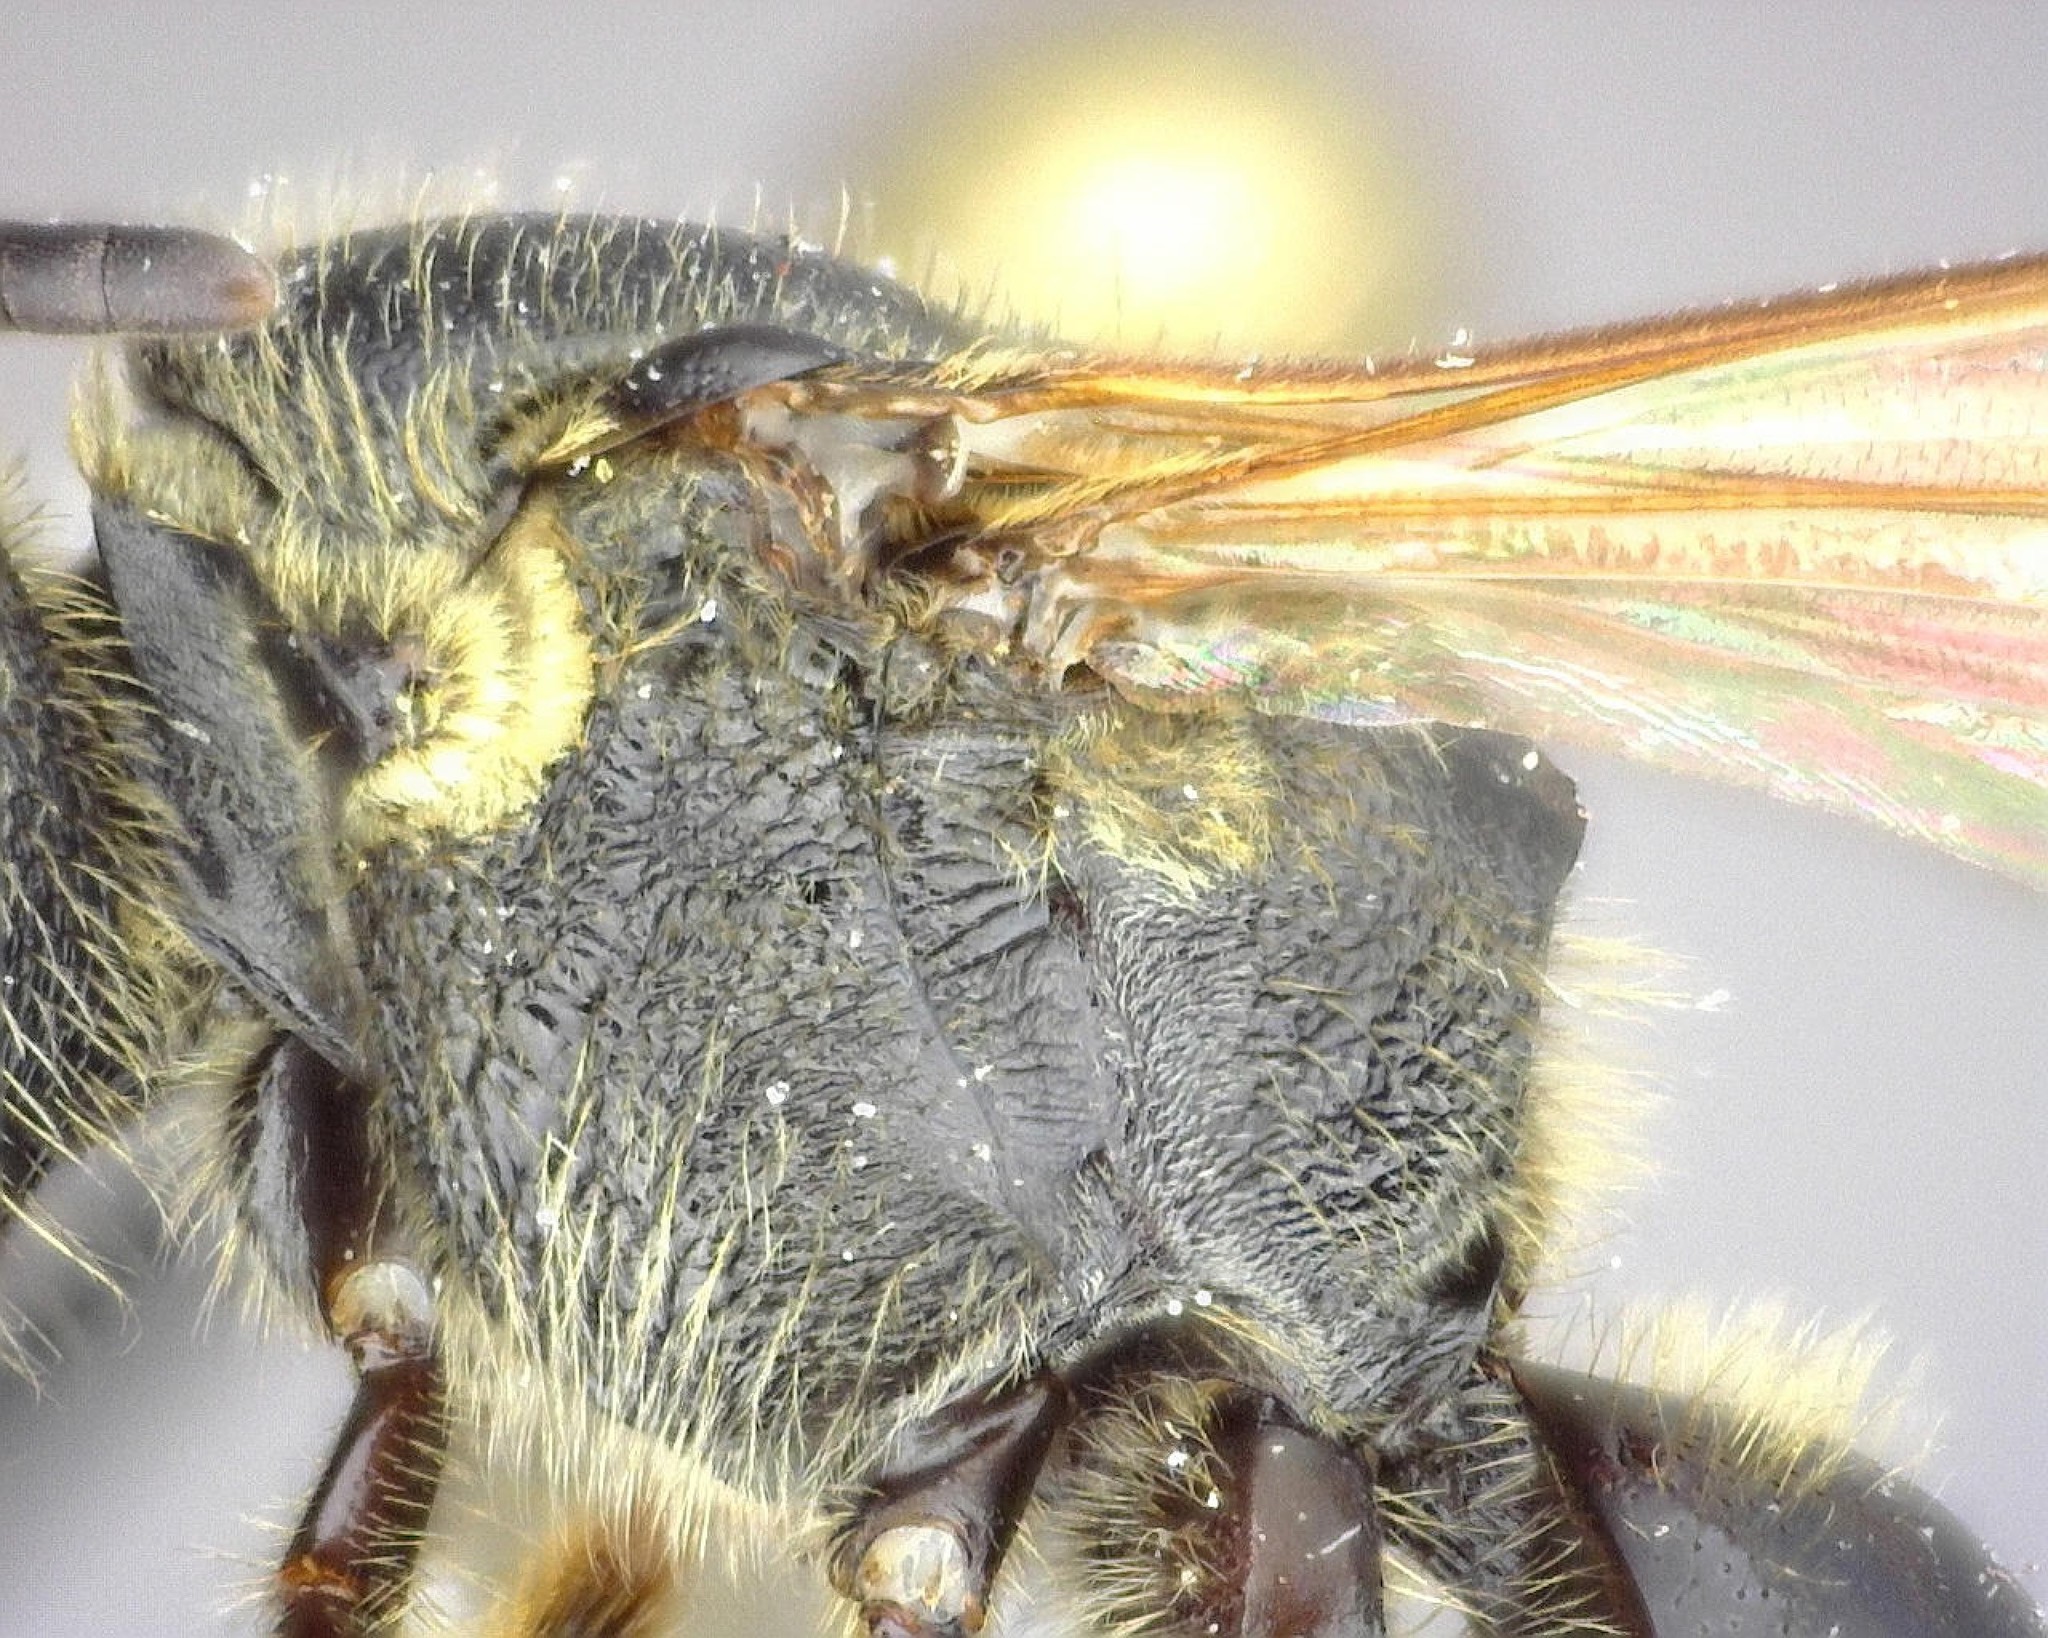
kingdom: Animalia
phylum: Arthropoda
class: Insecta
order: Hymenoptera
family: Halictidae
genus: Lasioglossum
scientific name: Lasioglossum fuscipenne
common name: Brown-winged sweat bee
